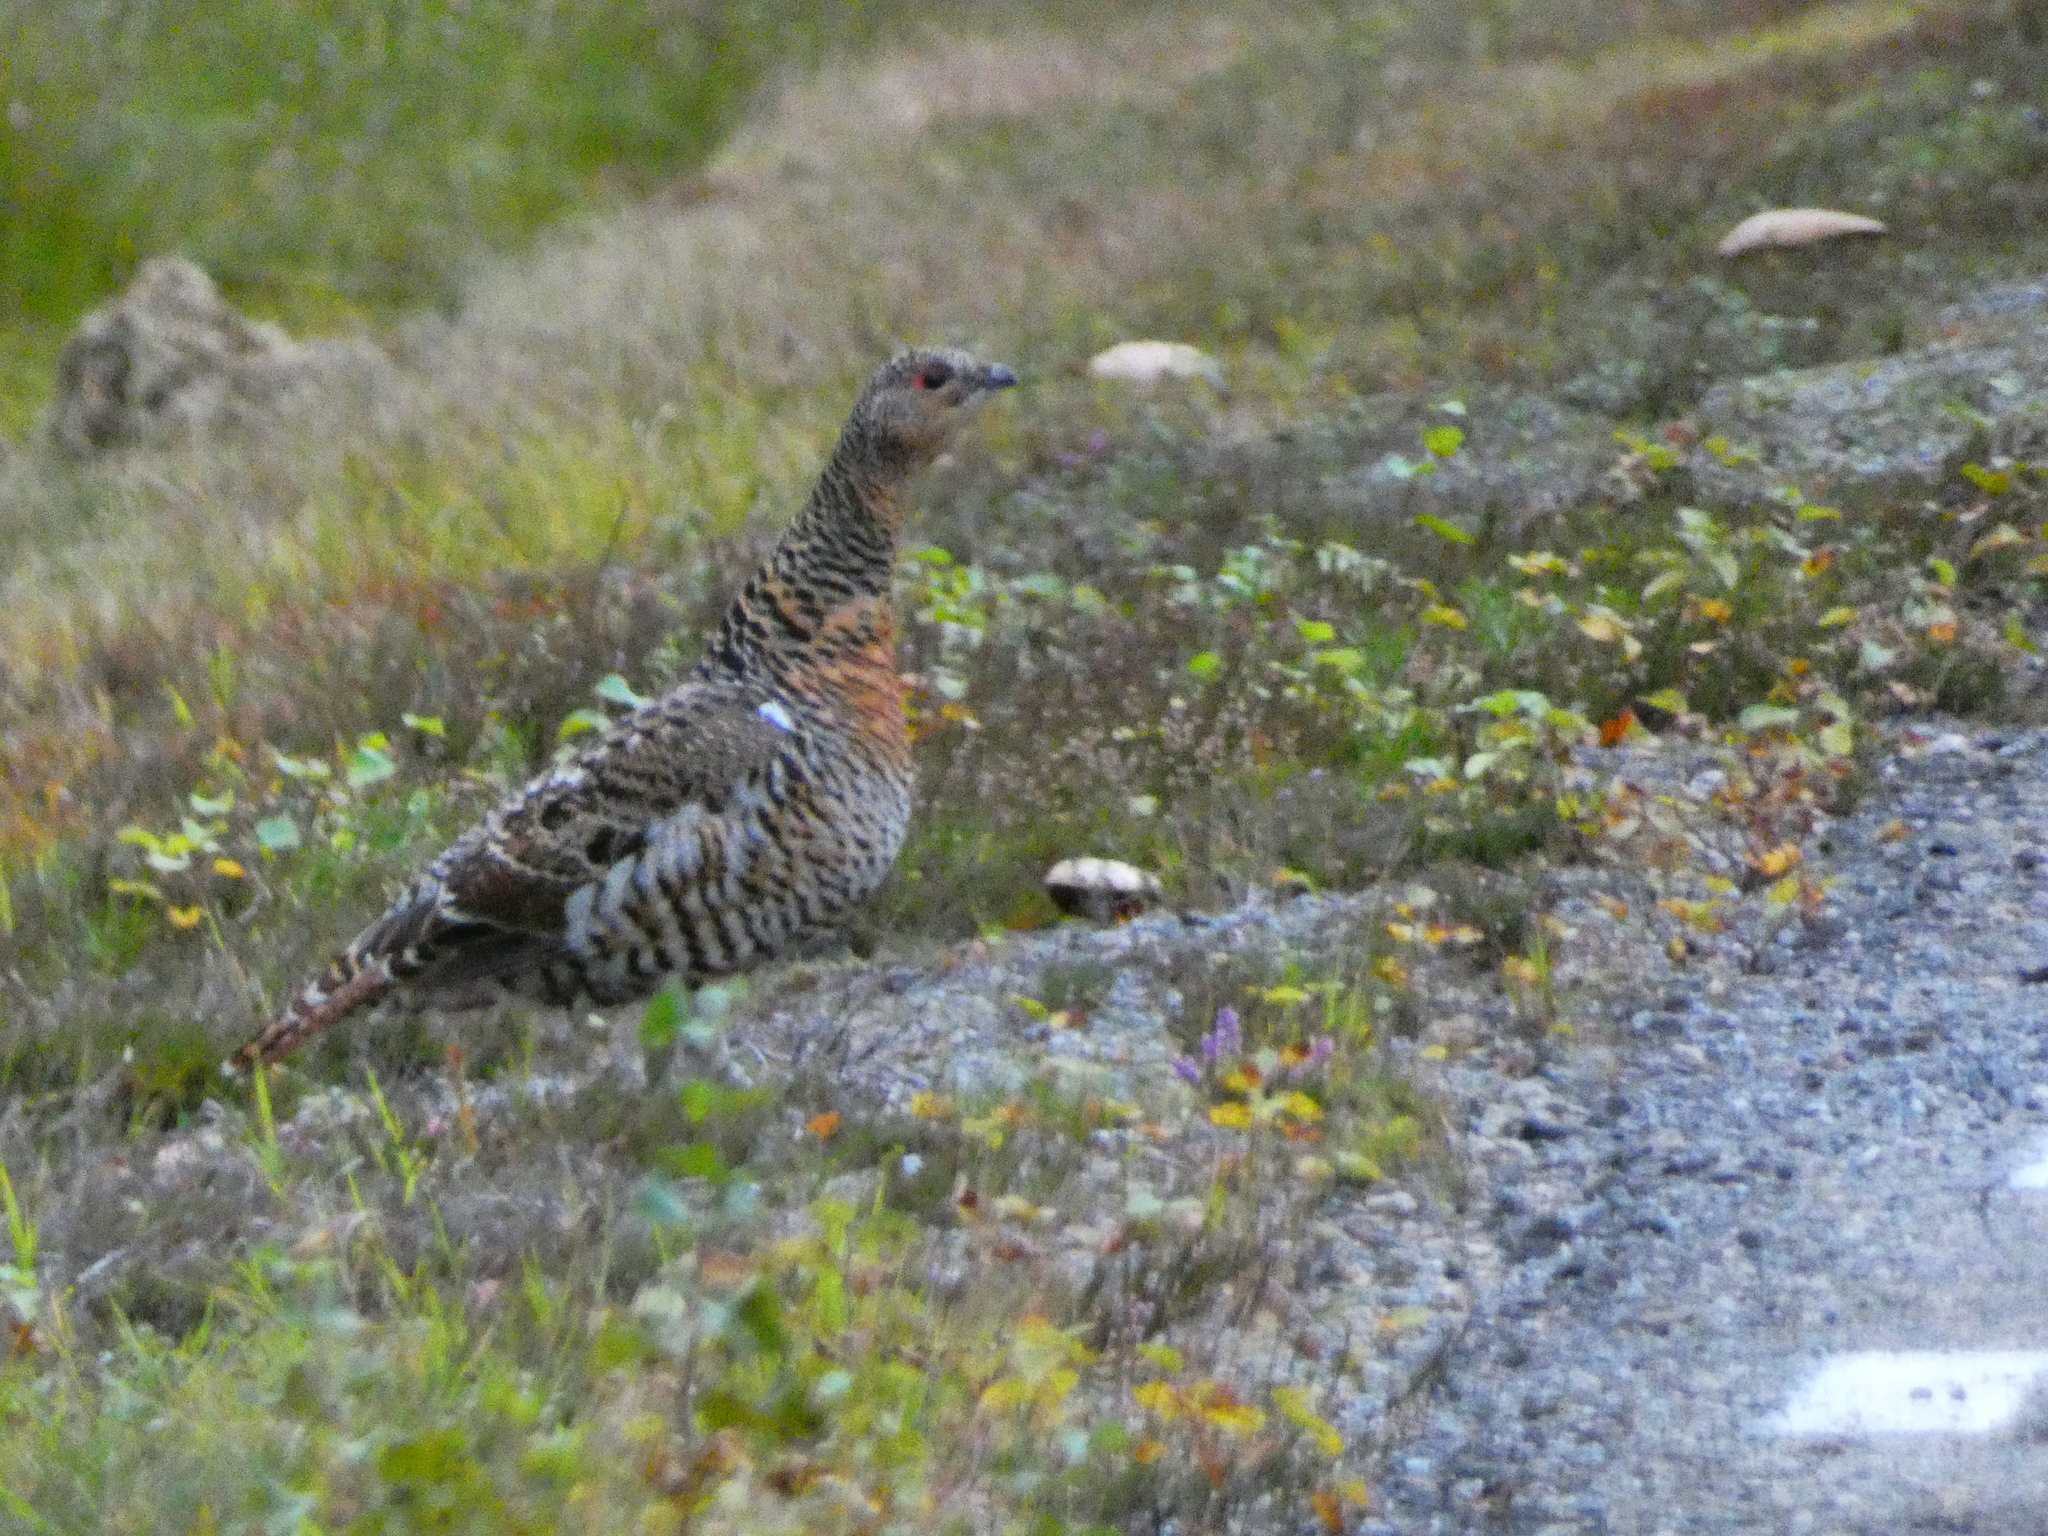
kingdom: Animalia
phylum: Chordata
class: Aves
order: Galliformes
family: Phasianidae
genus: Tetrao
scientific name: Tetrao urogallus
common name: Western capercaillie
